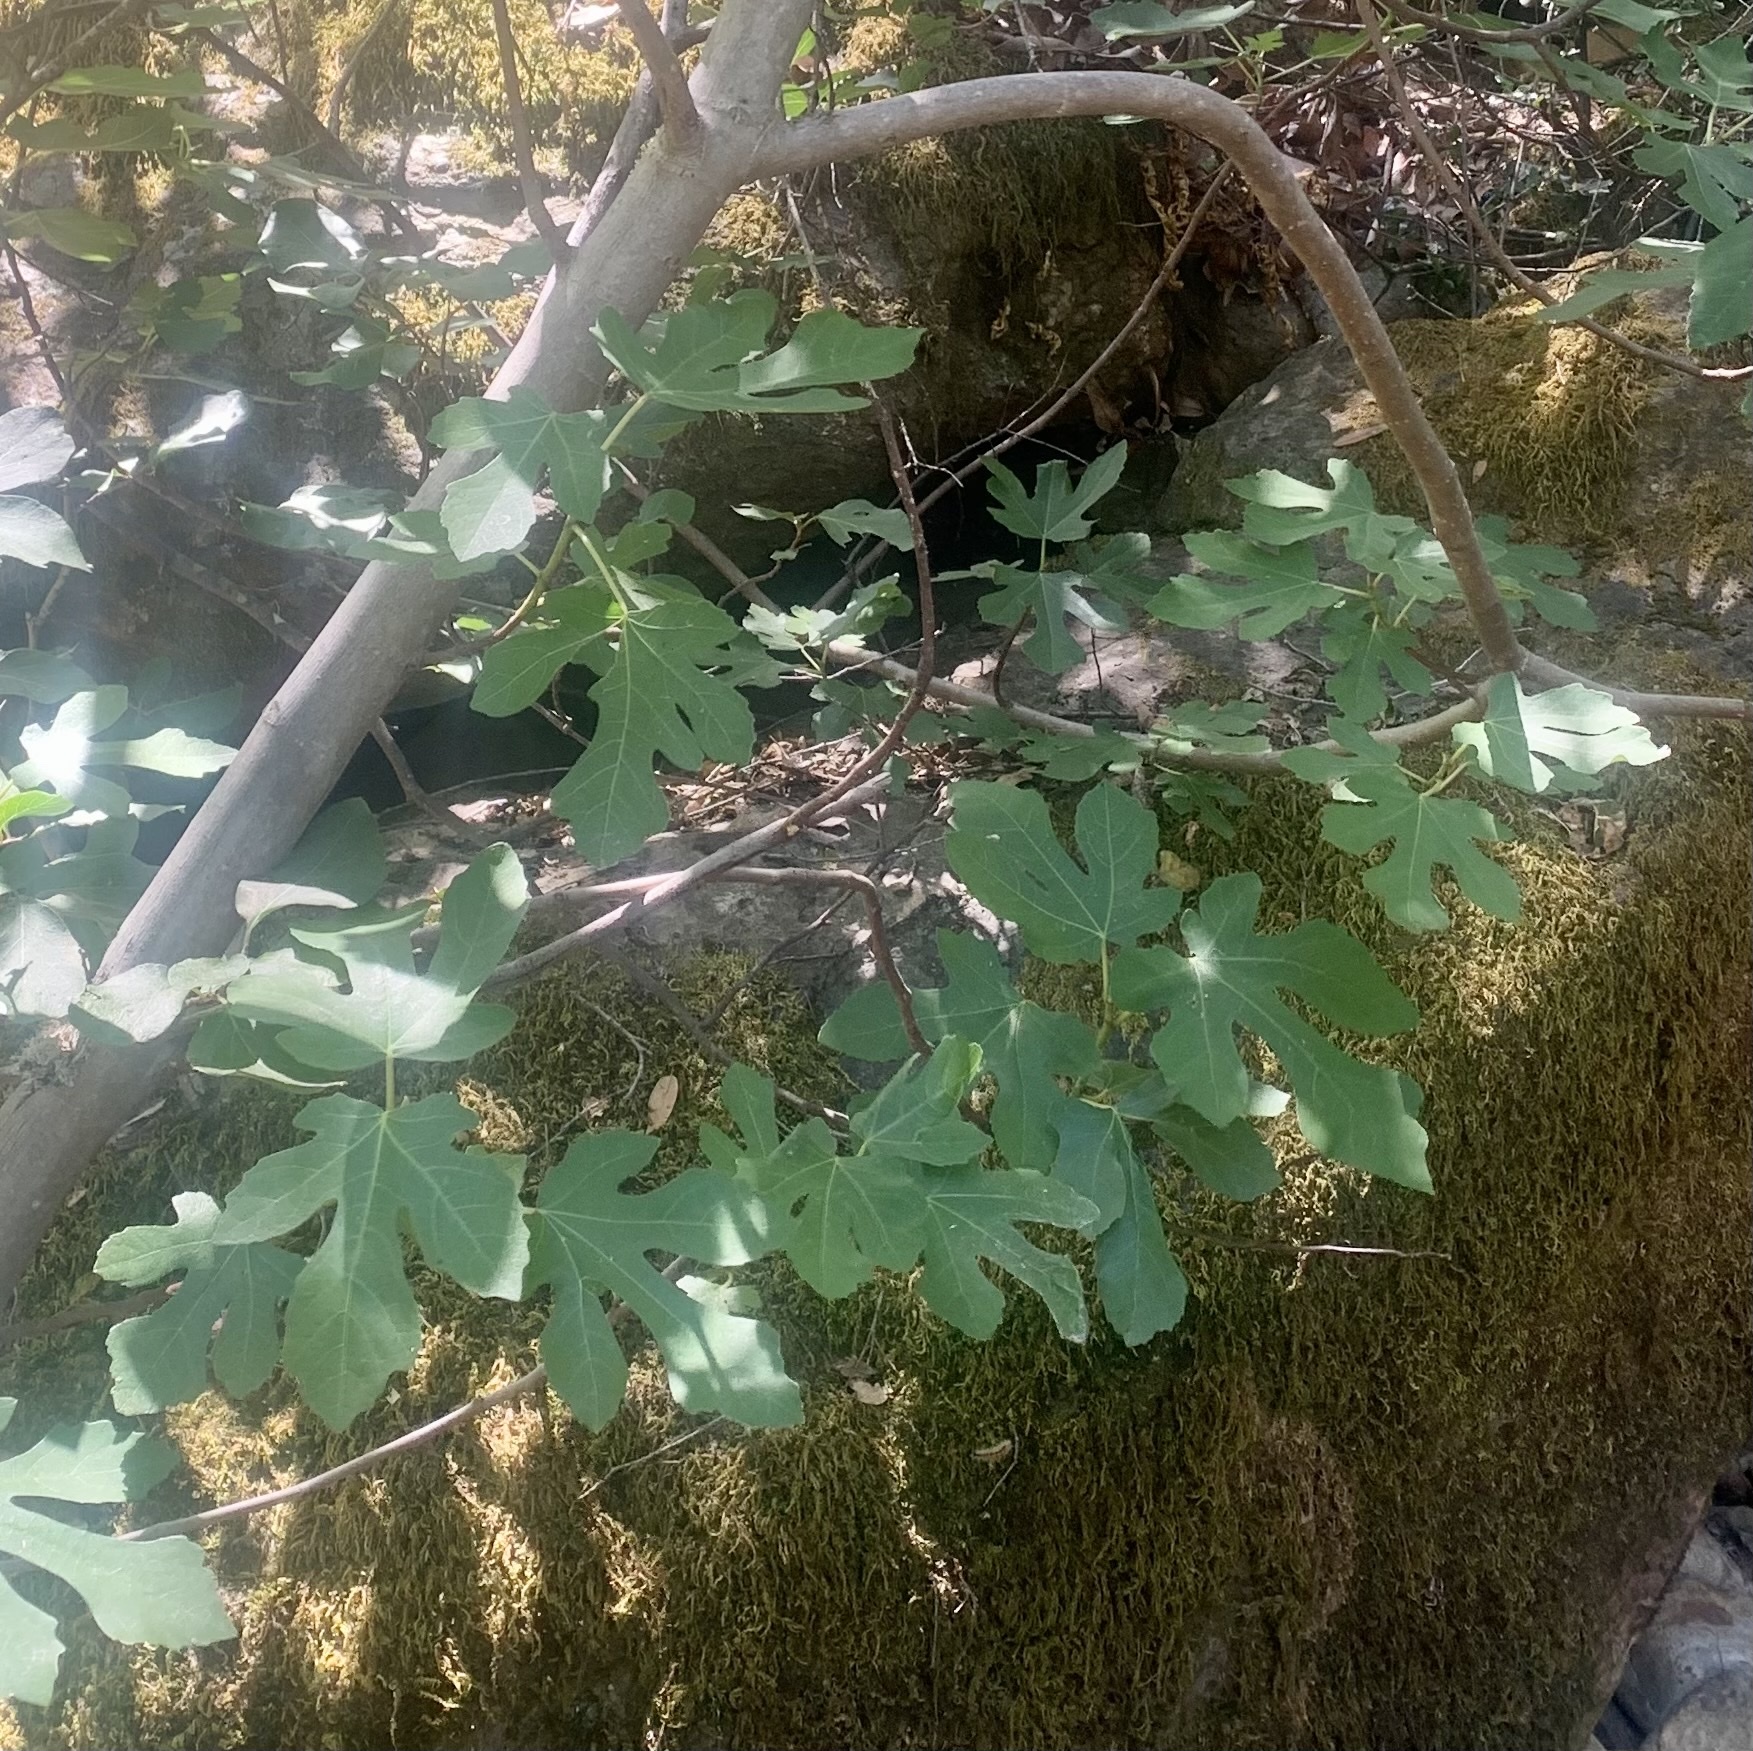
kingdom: Plantae
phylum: Tracheophyta
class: Magnoliopsida
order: Rosales
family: Moraceae
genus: Ficus
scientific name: Ficus carica
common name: Fig
